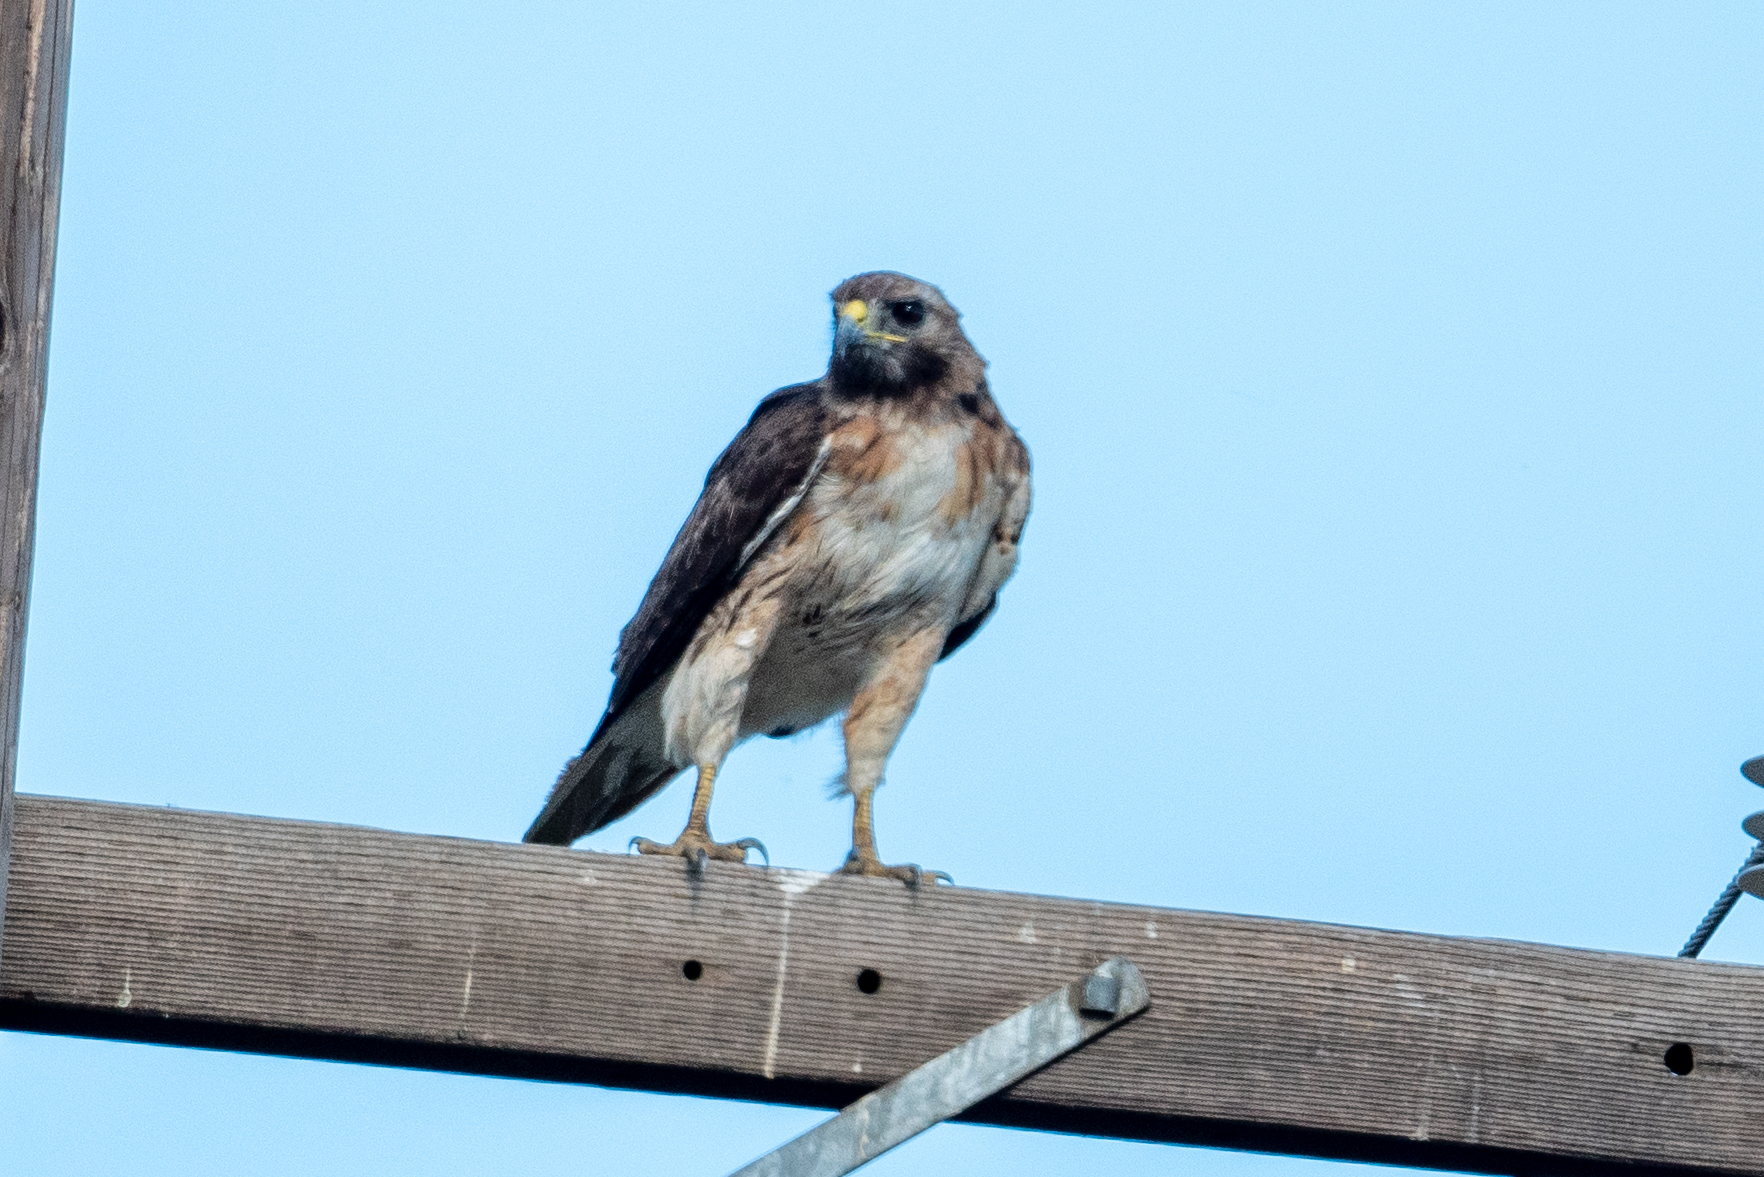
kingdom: Animalia
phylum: Chordata
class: Aves
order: Accipitriformes
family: Accipitridae
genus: Buteo
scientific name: Buteo jamaicensis
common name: Red-tailed hawk
